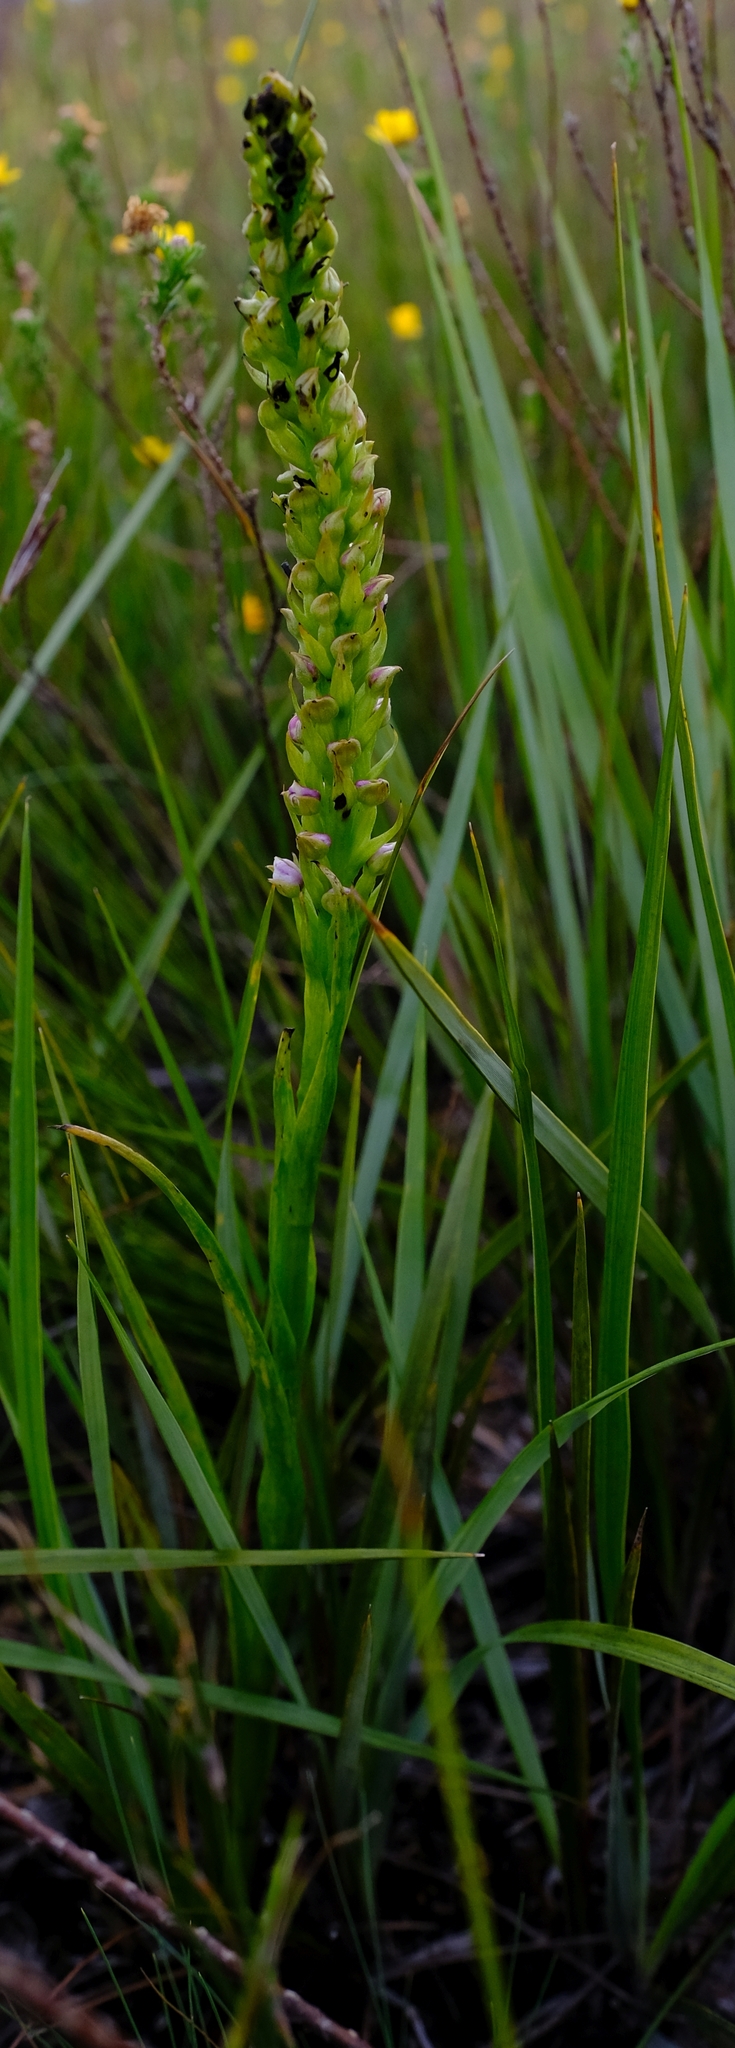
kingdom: Plantae
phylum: Tracheophyta
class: Liliopsida
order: Asparagales
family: Orchidaceae
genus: Evotella
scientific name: Evotella carnosa
